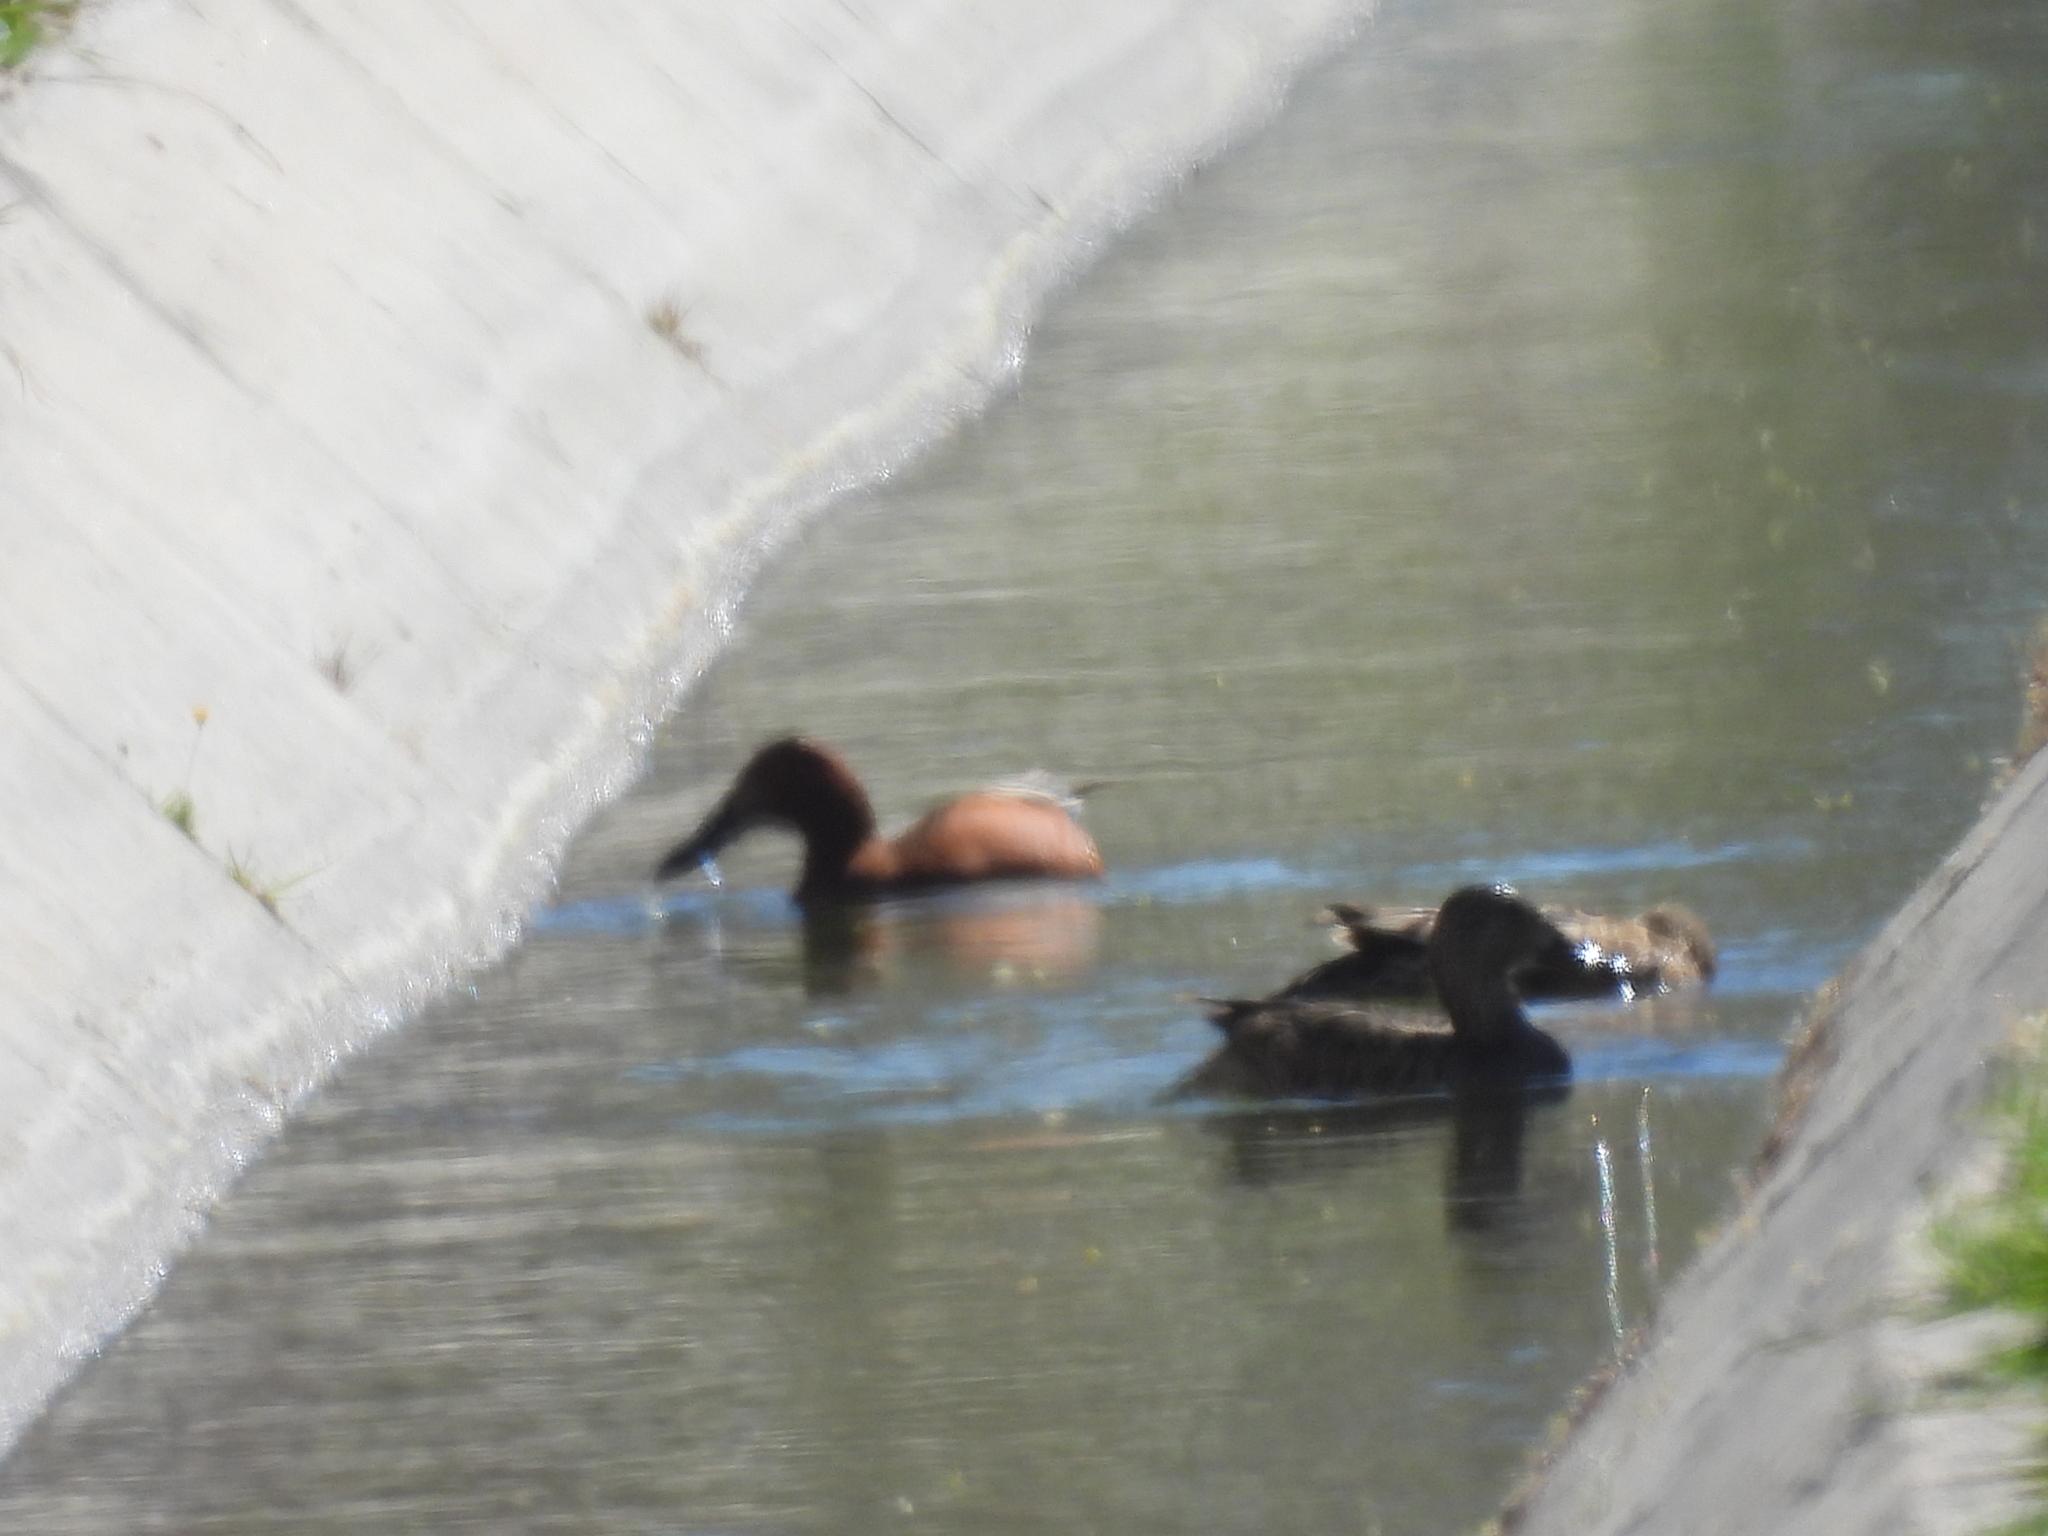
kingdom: Animalia
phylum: Chordata
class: Aves
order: Anseriformes
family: Anatidae
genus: Spatula
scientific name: Spatula cyanoptera
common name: Cinnamon teal
